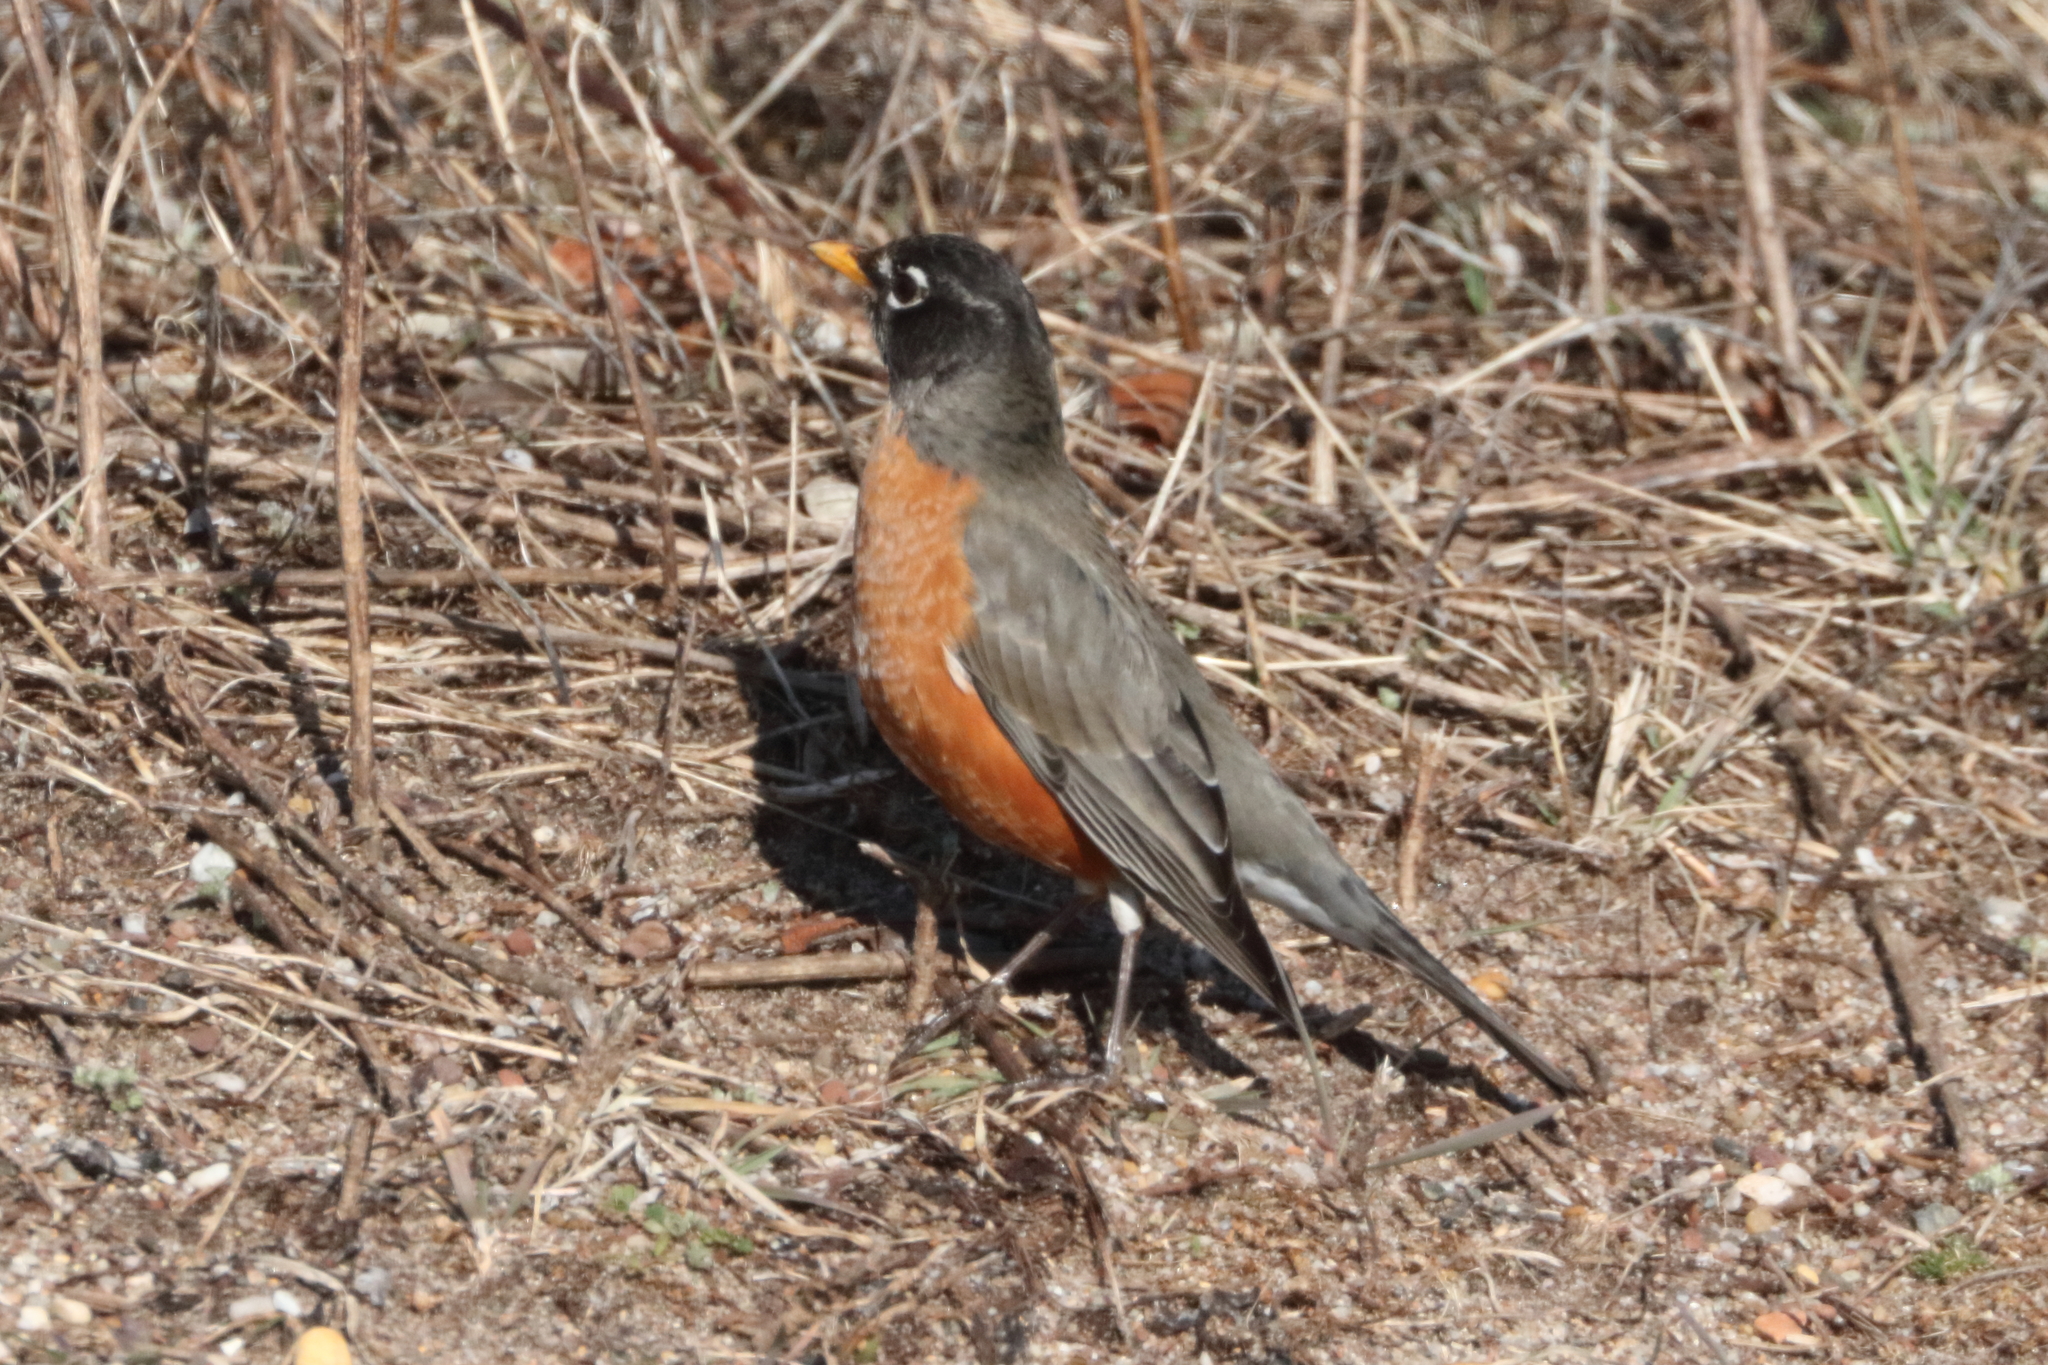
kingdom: Animalia
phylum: Chordata
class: Aves
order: Passeriformes
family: Turdidae
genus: Turdus
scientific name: Turdus migratorius
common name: American robin
